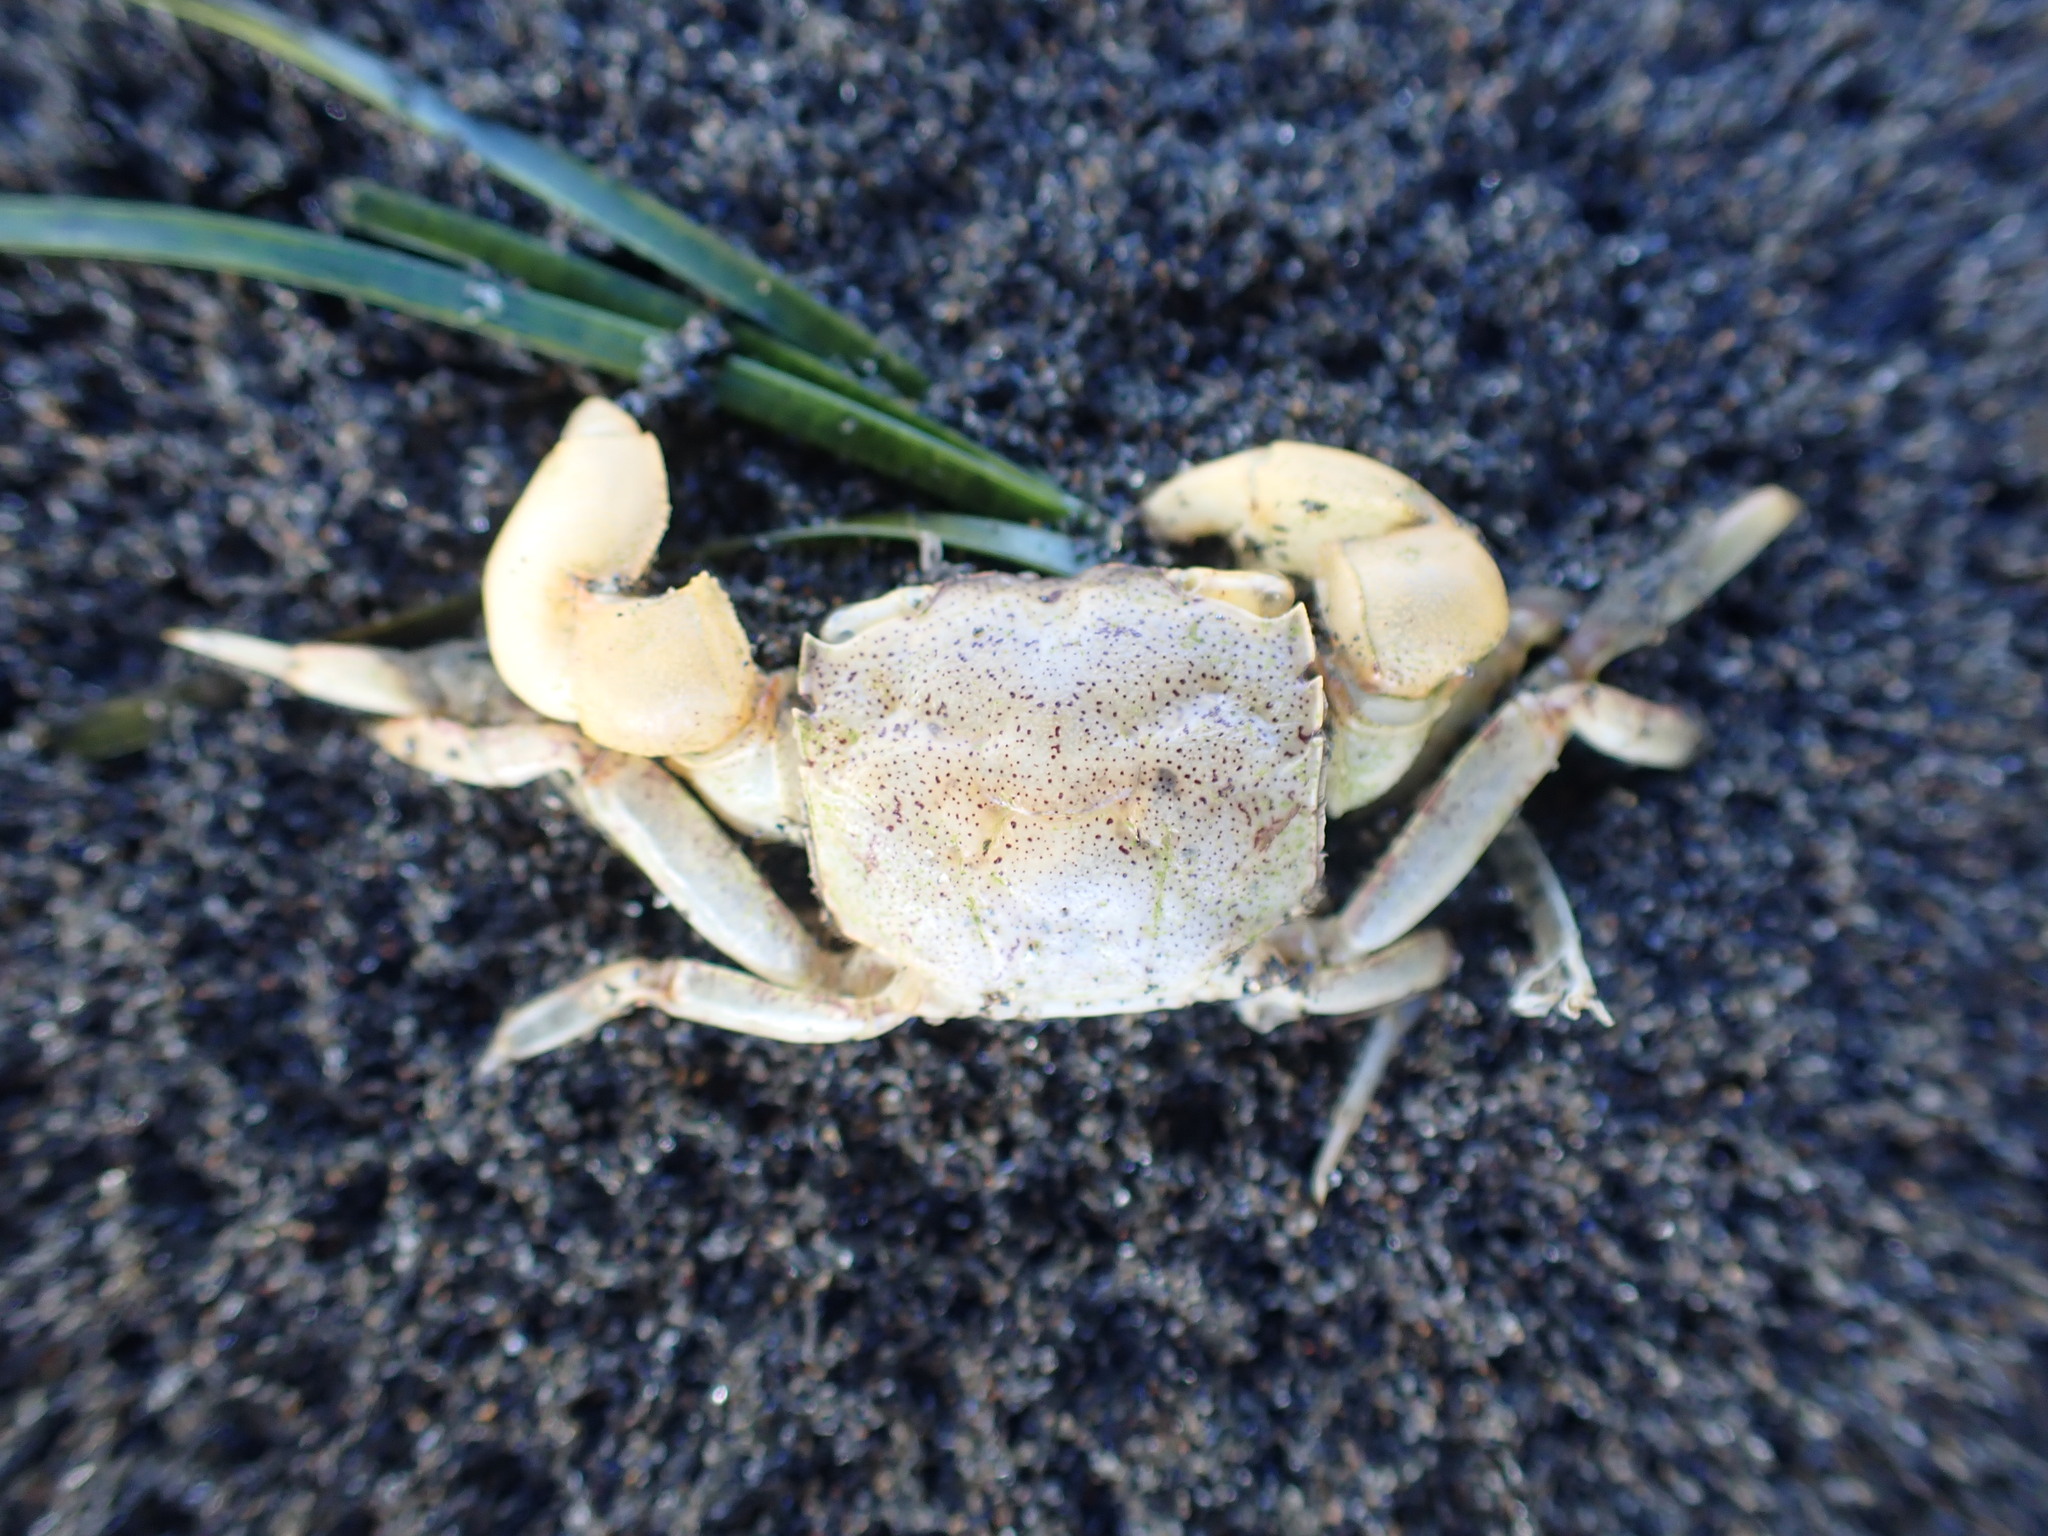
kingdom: Animalia
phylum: Arthropoda
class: Malacostraca
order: Decapoda
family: Varunidae
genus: Austrohelice
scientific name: Austrohelice crassa
